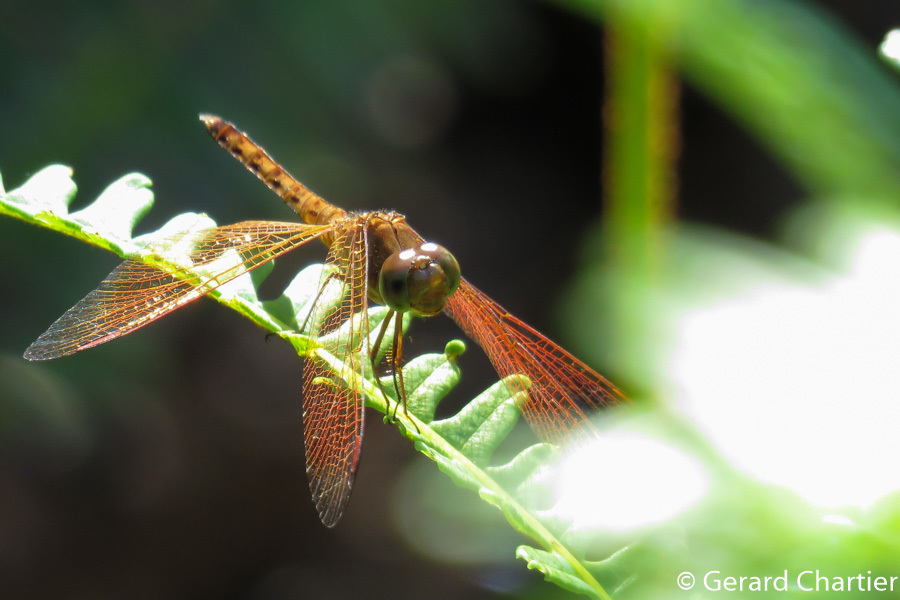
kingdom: Animalia
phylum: Arthropoda
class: Insecta
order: Odonata
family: Libellulidae
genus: Neurothemis
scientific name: Neurothemis fluctuans
